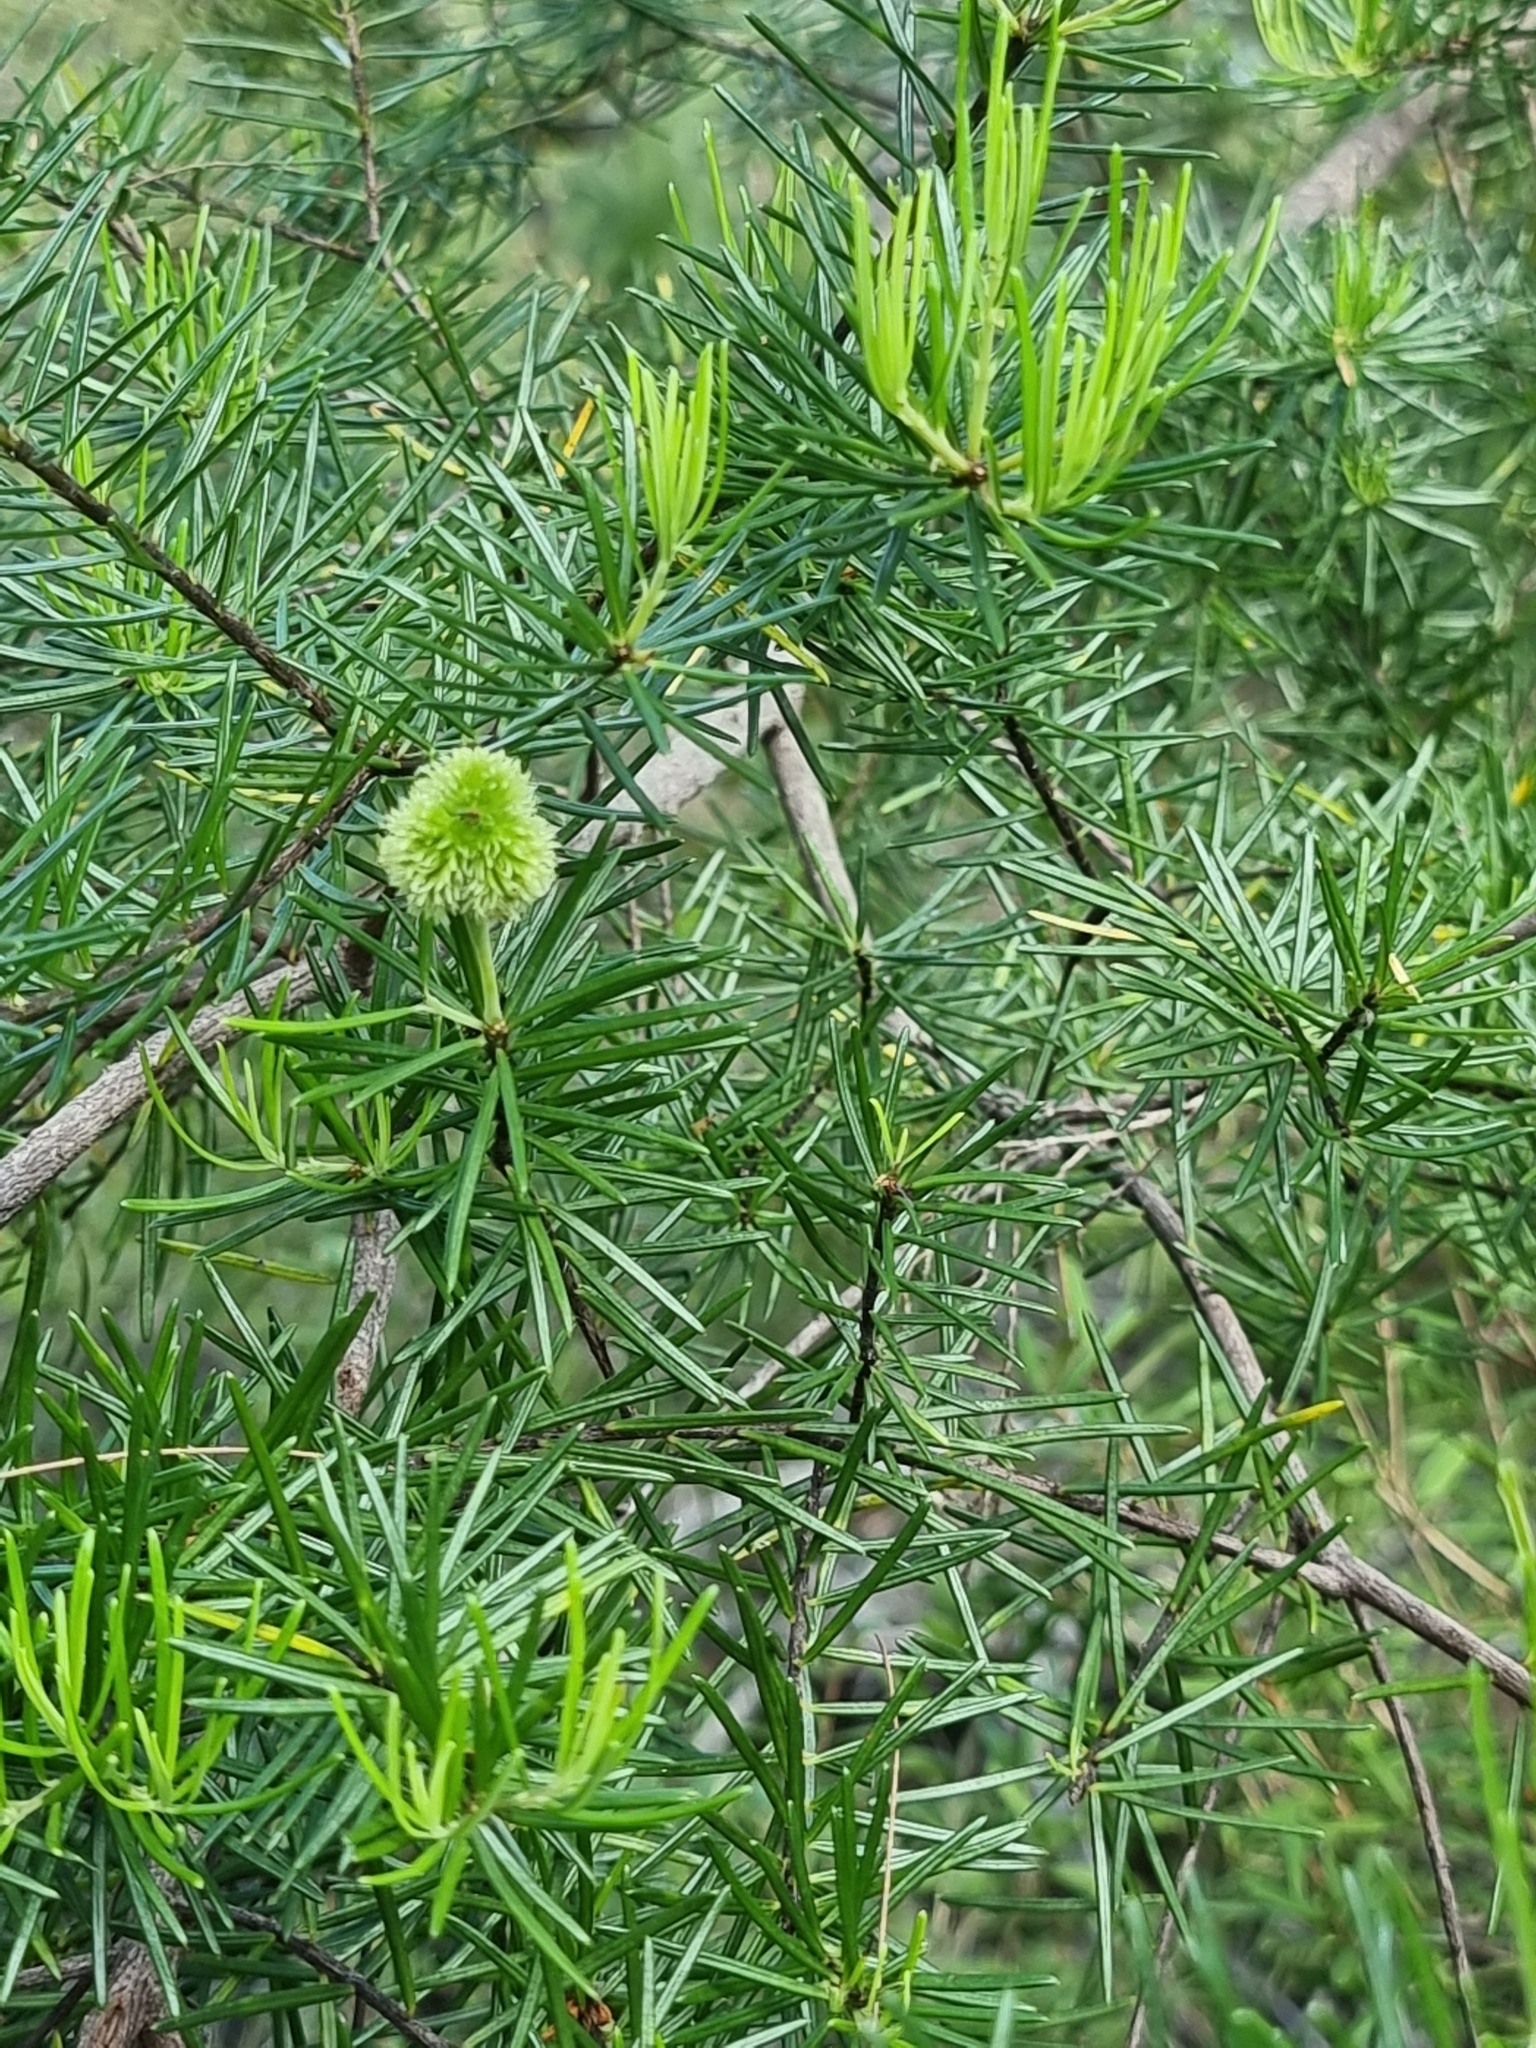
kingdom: Plantae
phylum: Tracheophyta
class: Magnoliopsida
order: Malpighiales
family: Euphorbiaceae
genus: Ricinocarpos
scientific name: Ricinocarpos pinifolius
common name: Weddingbush
